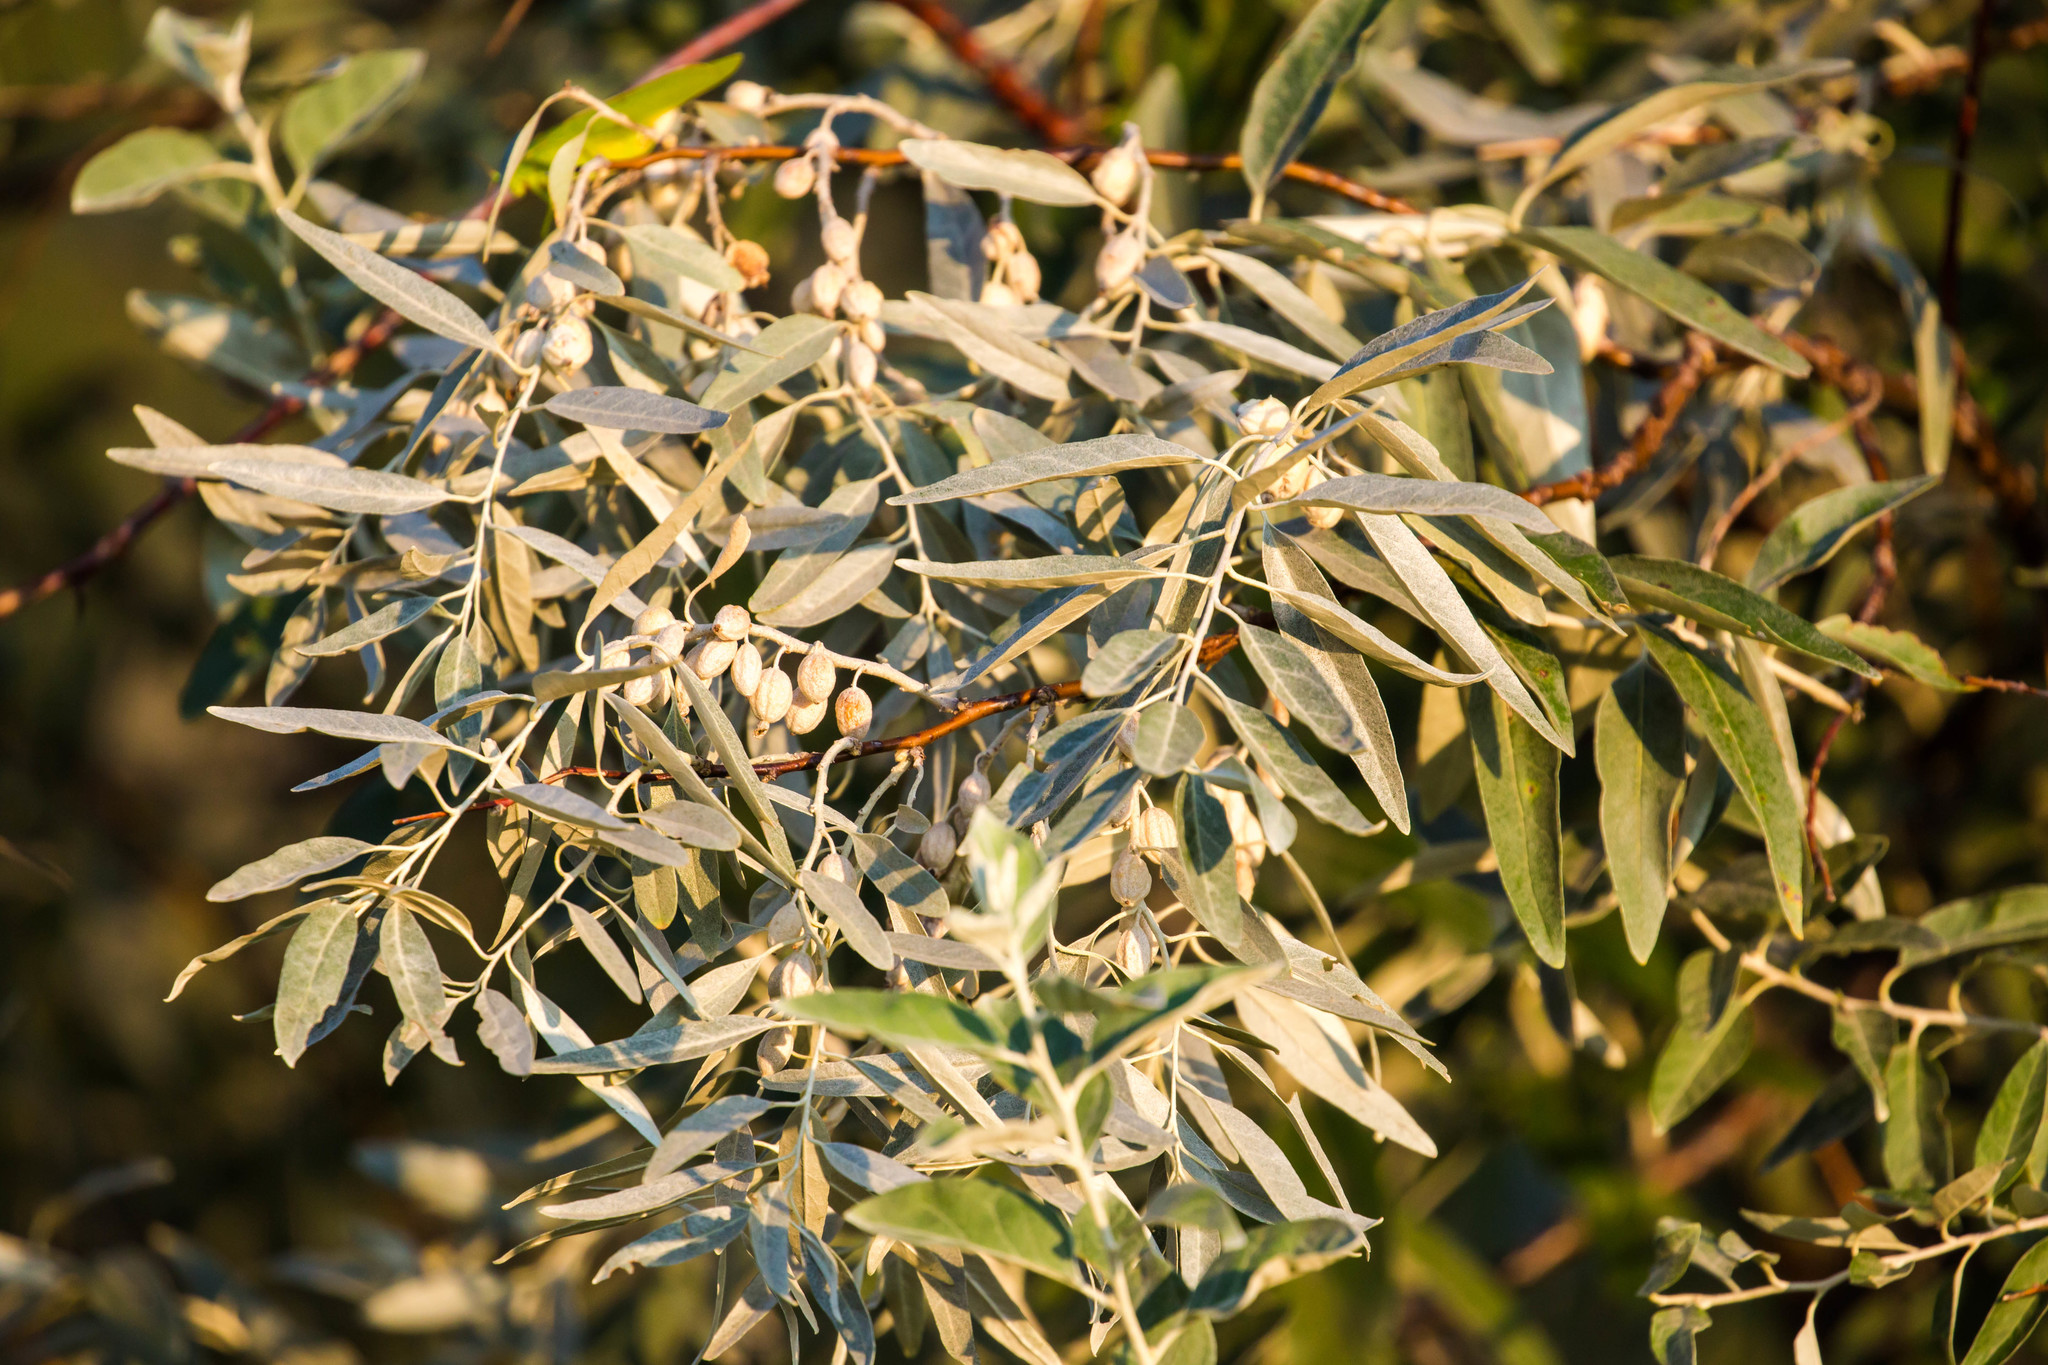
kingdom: Plantae
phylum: Tracheophyta
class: Magnoliopsida
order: Rosales
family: Elaeagnaceae
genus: Elaeagnus
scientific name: Elaeagnus angustifolia
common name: Russian olive
